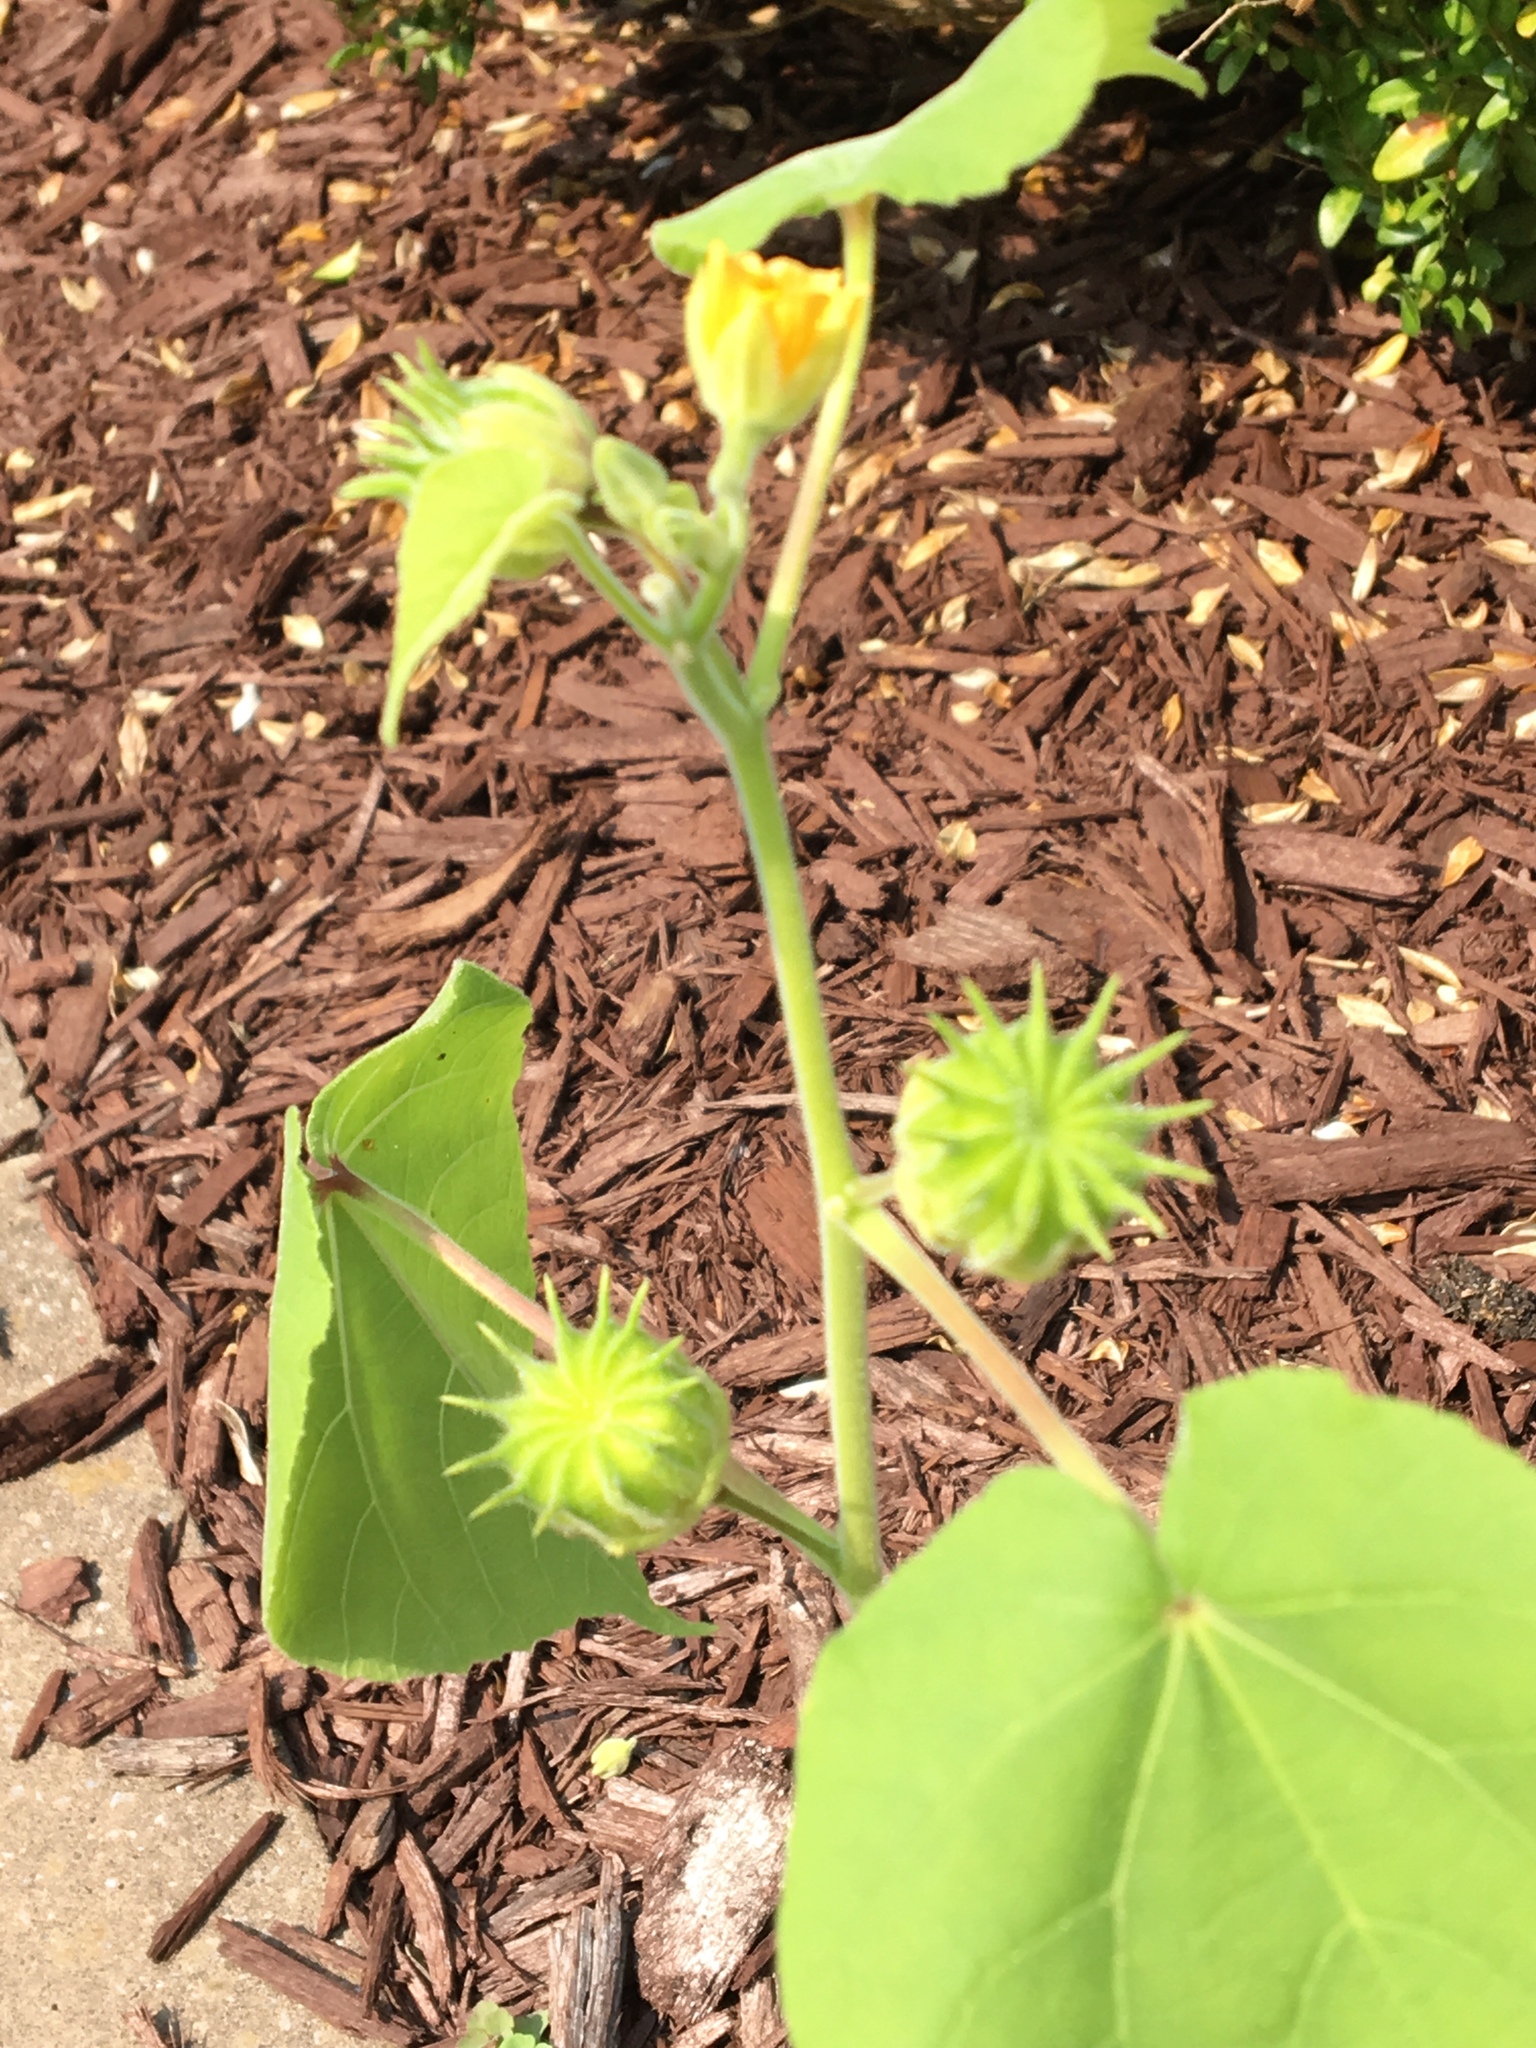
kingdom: Plantae
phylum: Tracheophyta
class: Magnoliopsida
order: Malvales
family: Malvaceae
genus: Abutilon
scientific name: Abutilon theophrasti
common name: Velvetleaf
